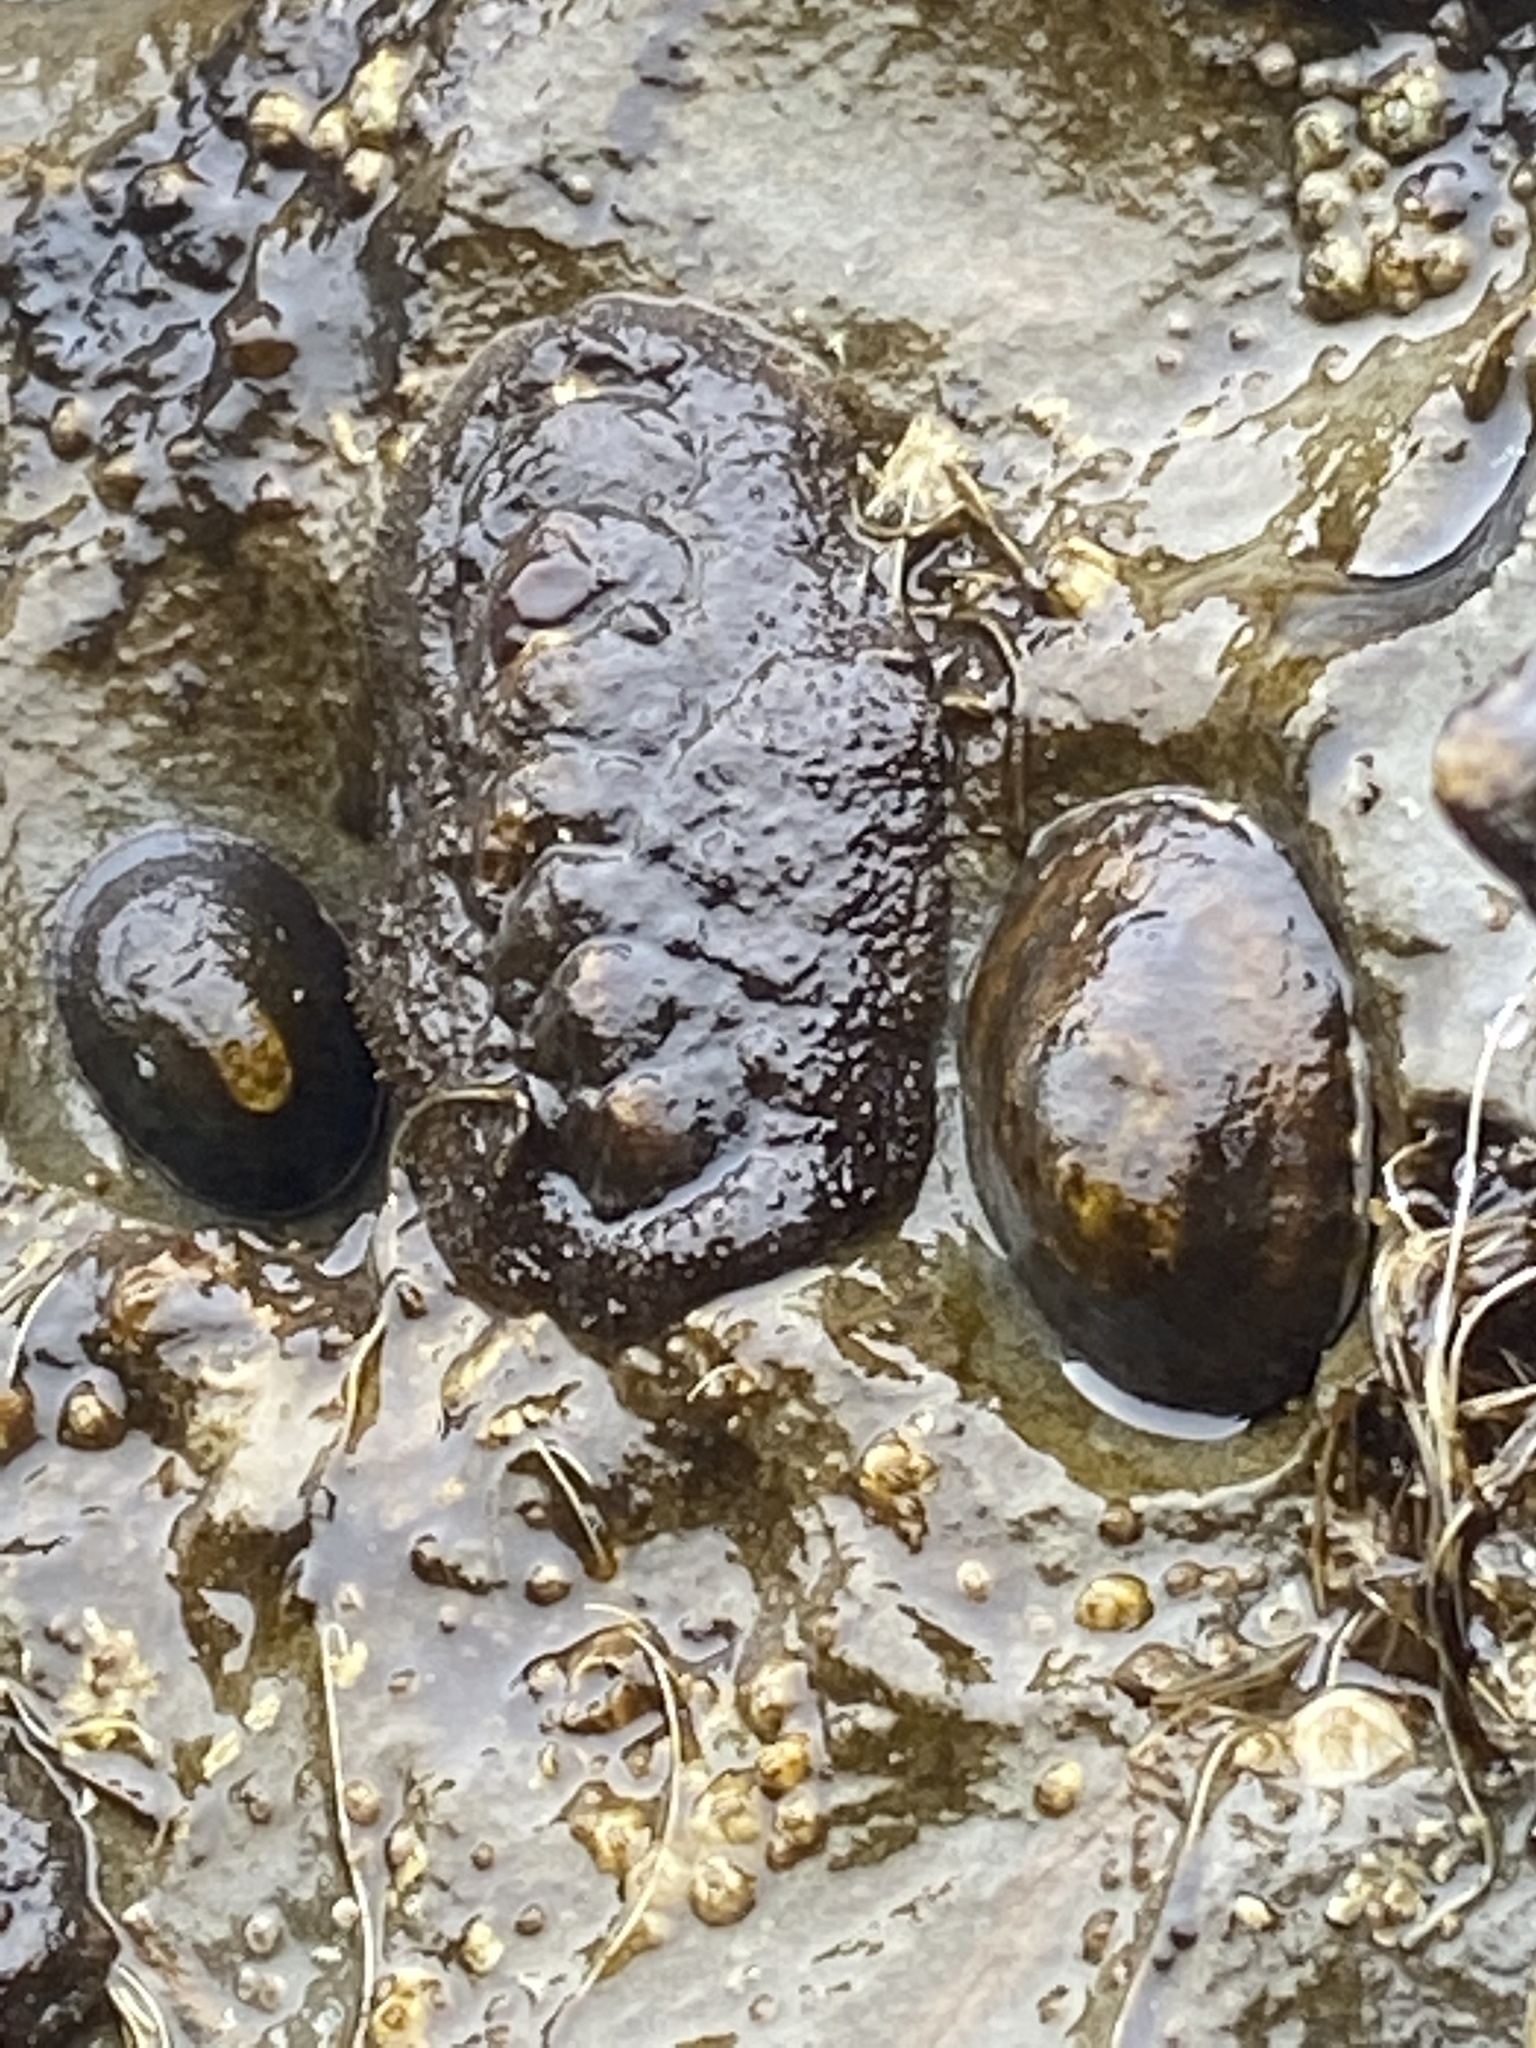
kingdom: Animalia
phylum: Mollusca
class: Polyplacophora
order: Chitonida
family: Mopaliidae
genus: Katharina
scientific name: Katharina tunicata
